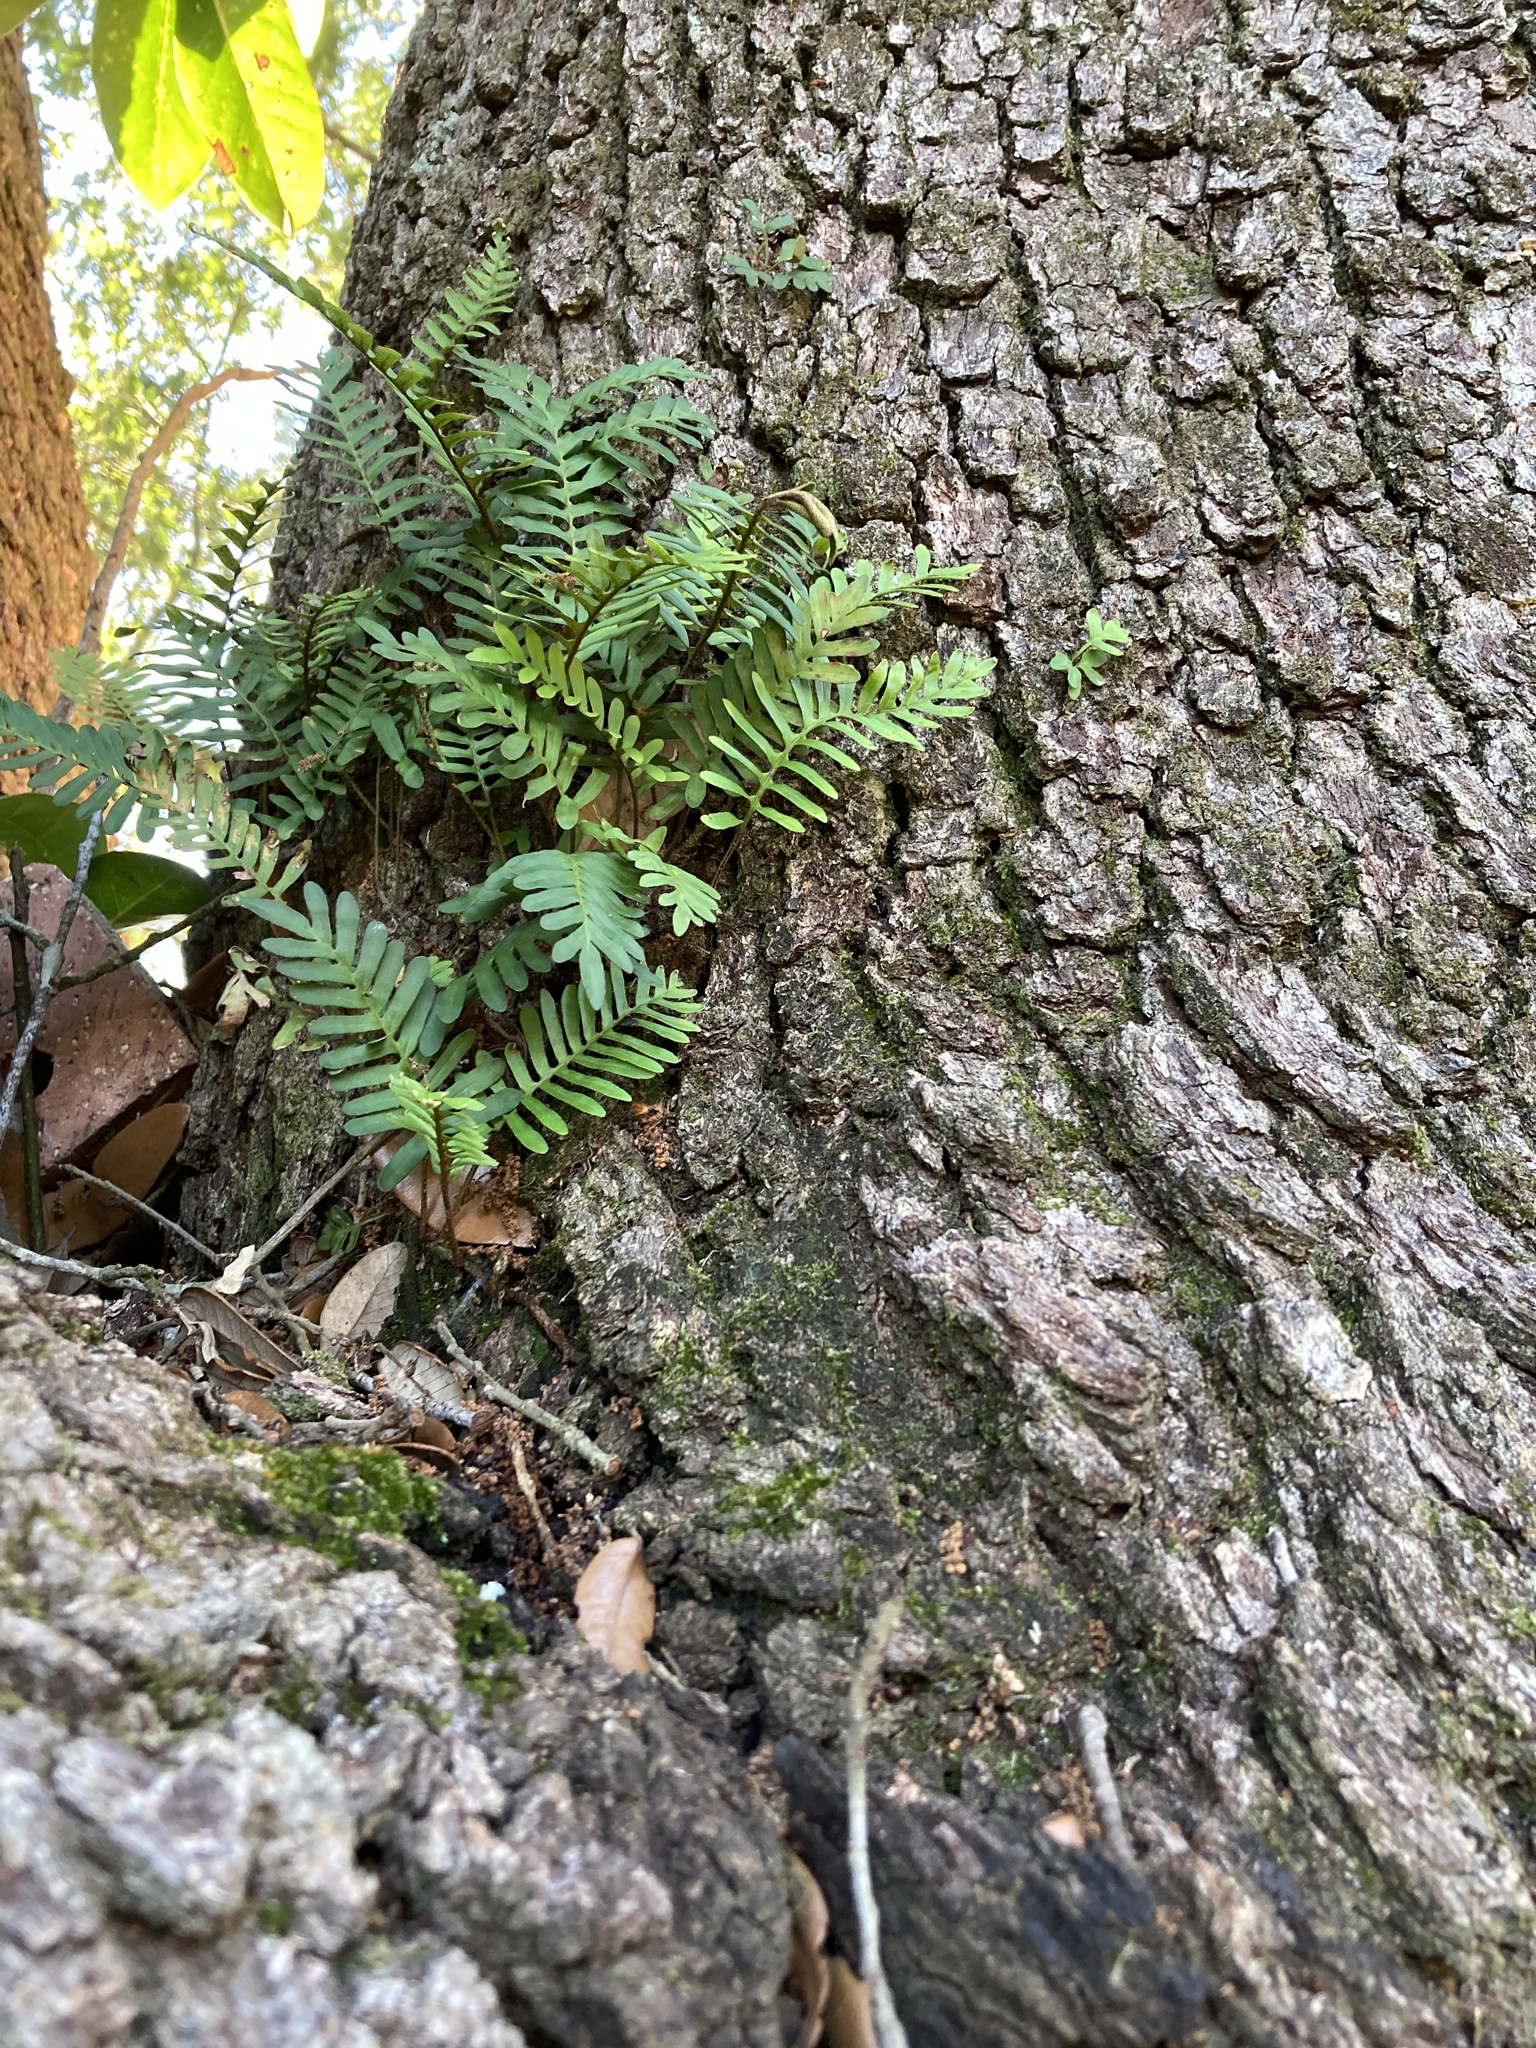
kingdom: Plantae
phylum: Tracheophyta
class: Polypodiopsida
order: Polypodiales
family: Polypodiaceae
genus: Pleopeltis
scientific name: Pleopeltis michauxiana
